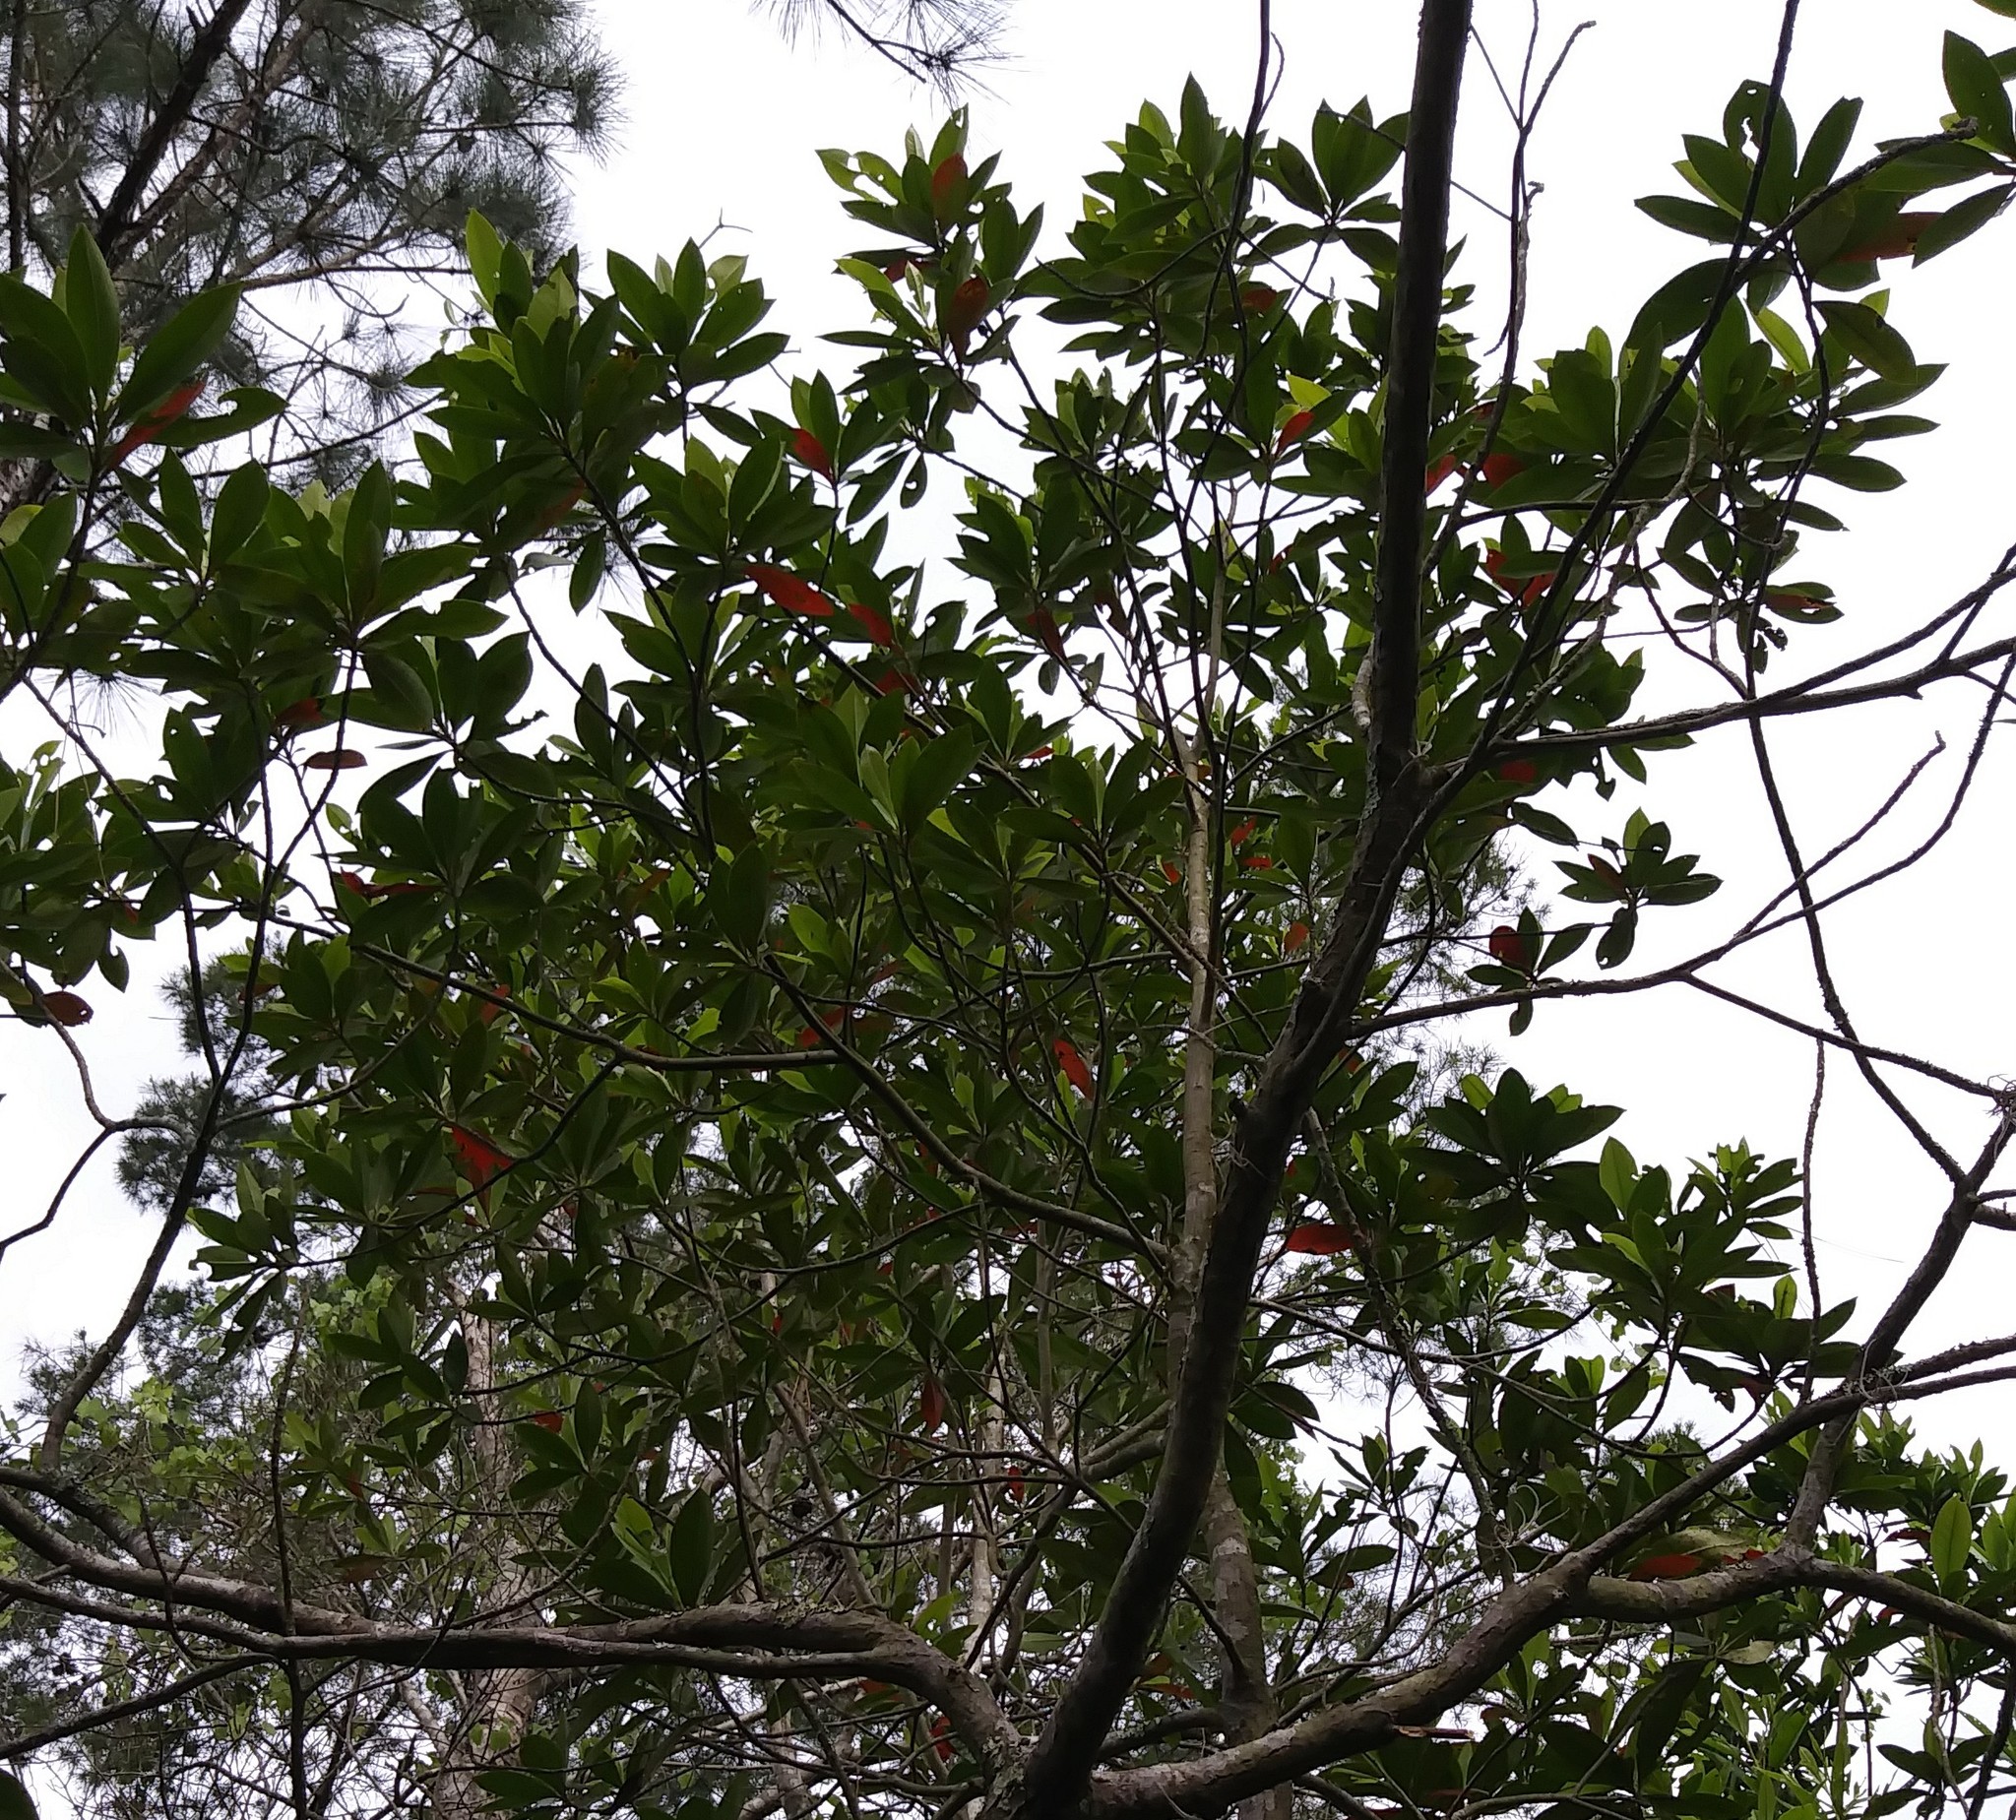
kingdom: Plantae
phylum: Tracheophyta
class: Magnoliopsida
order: Ericales
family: Theaceae
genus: Gordonia
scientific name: Gordonia lasianthus
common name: Loblolly bay
